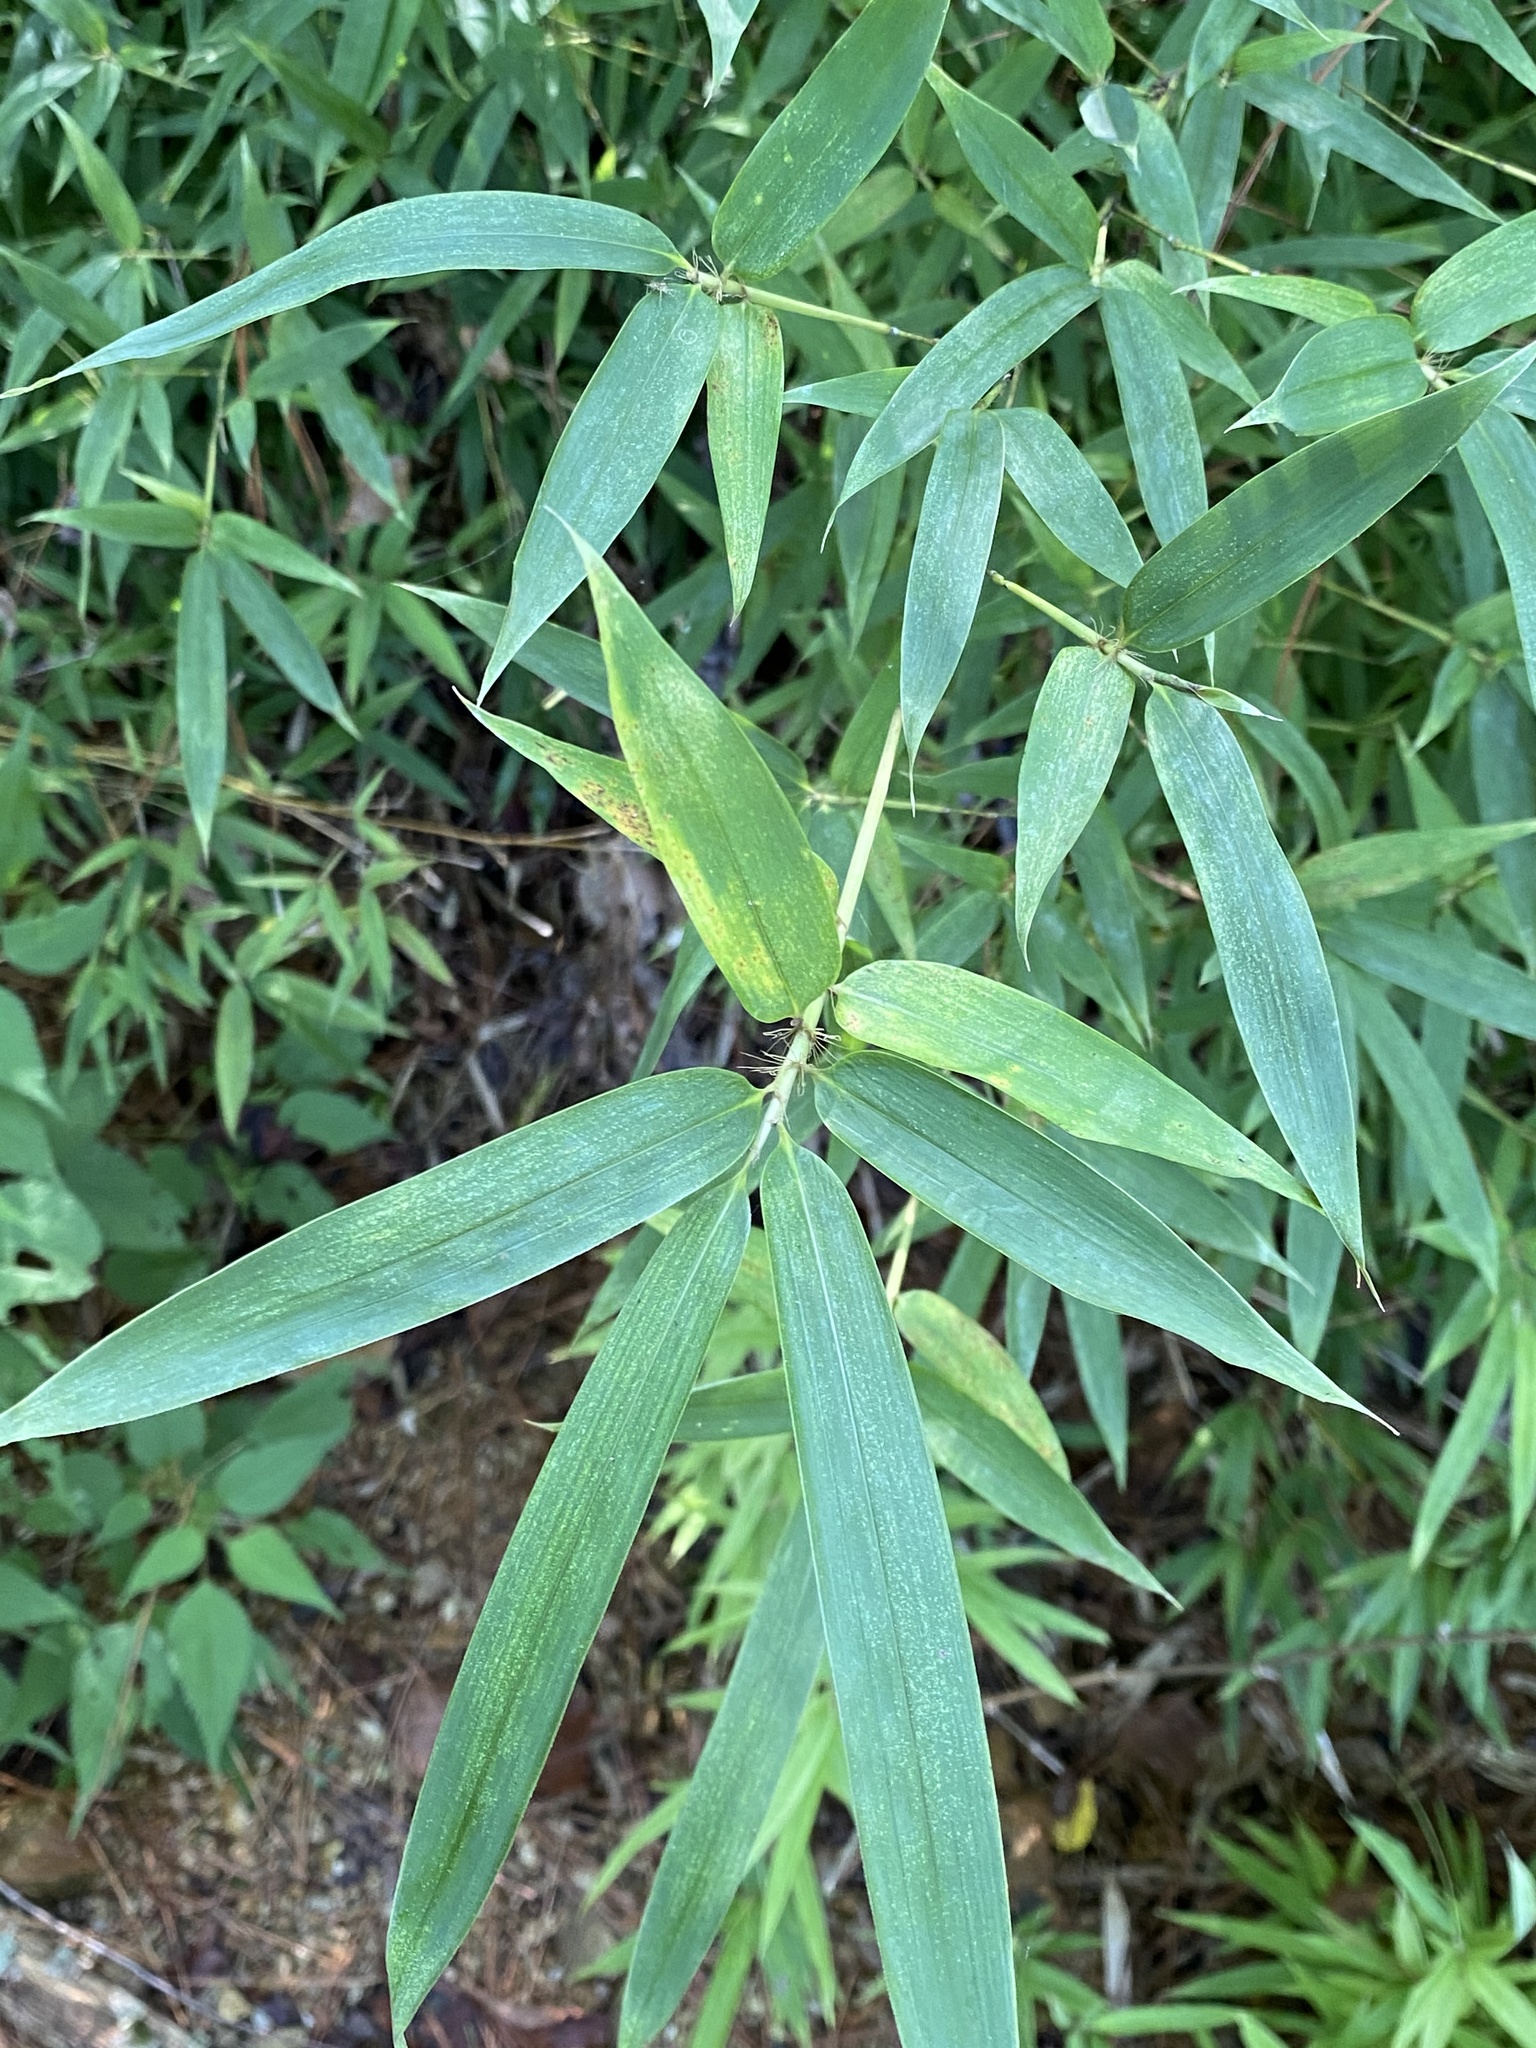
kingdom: Plantae
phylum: Tracheophyta
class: Liliopsida
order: Poales
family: Poaceae
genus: Arundinaria
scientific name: Arundinaria gigantea
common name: Giant cane
